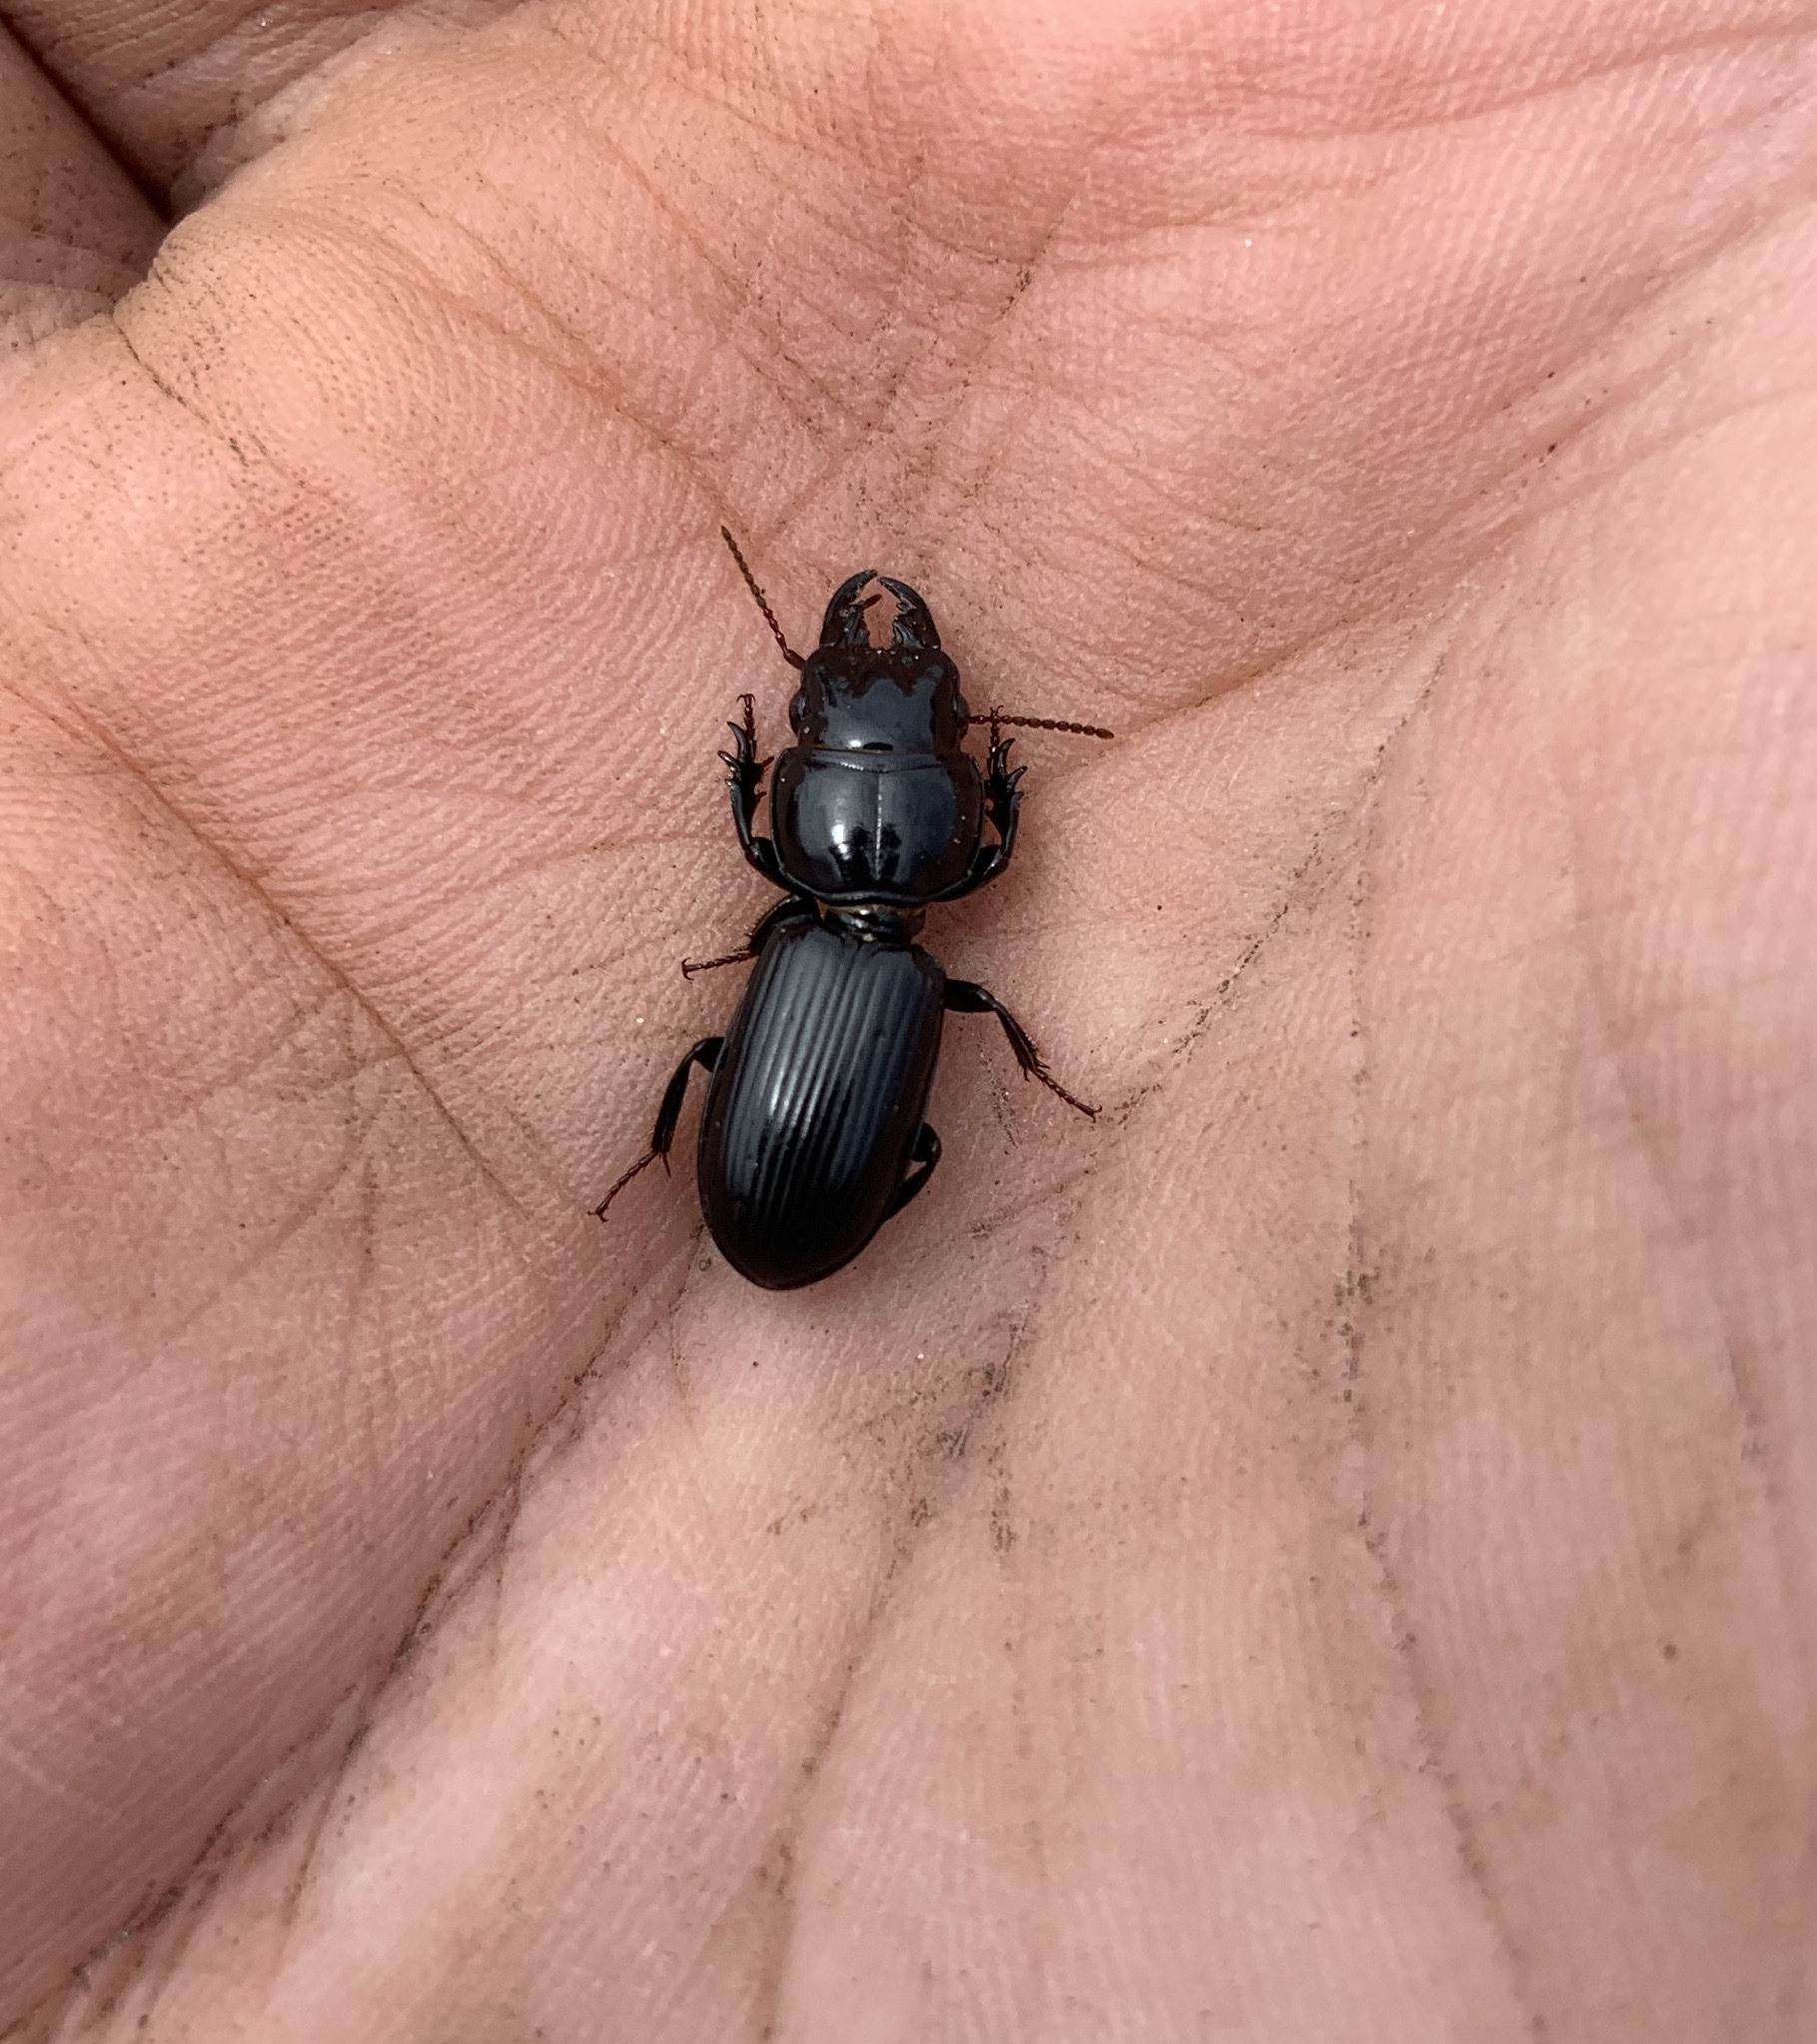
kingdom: Animalia
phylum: Arthropoda
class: Insecta
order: Coleoptera
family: Carabidae
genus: Scarites
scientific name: Scarites subterraneus
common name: Big-headed ground beetle
